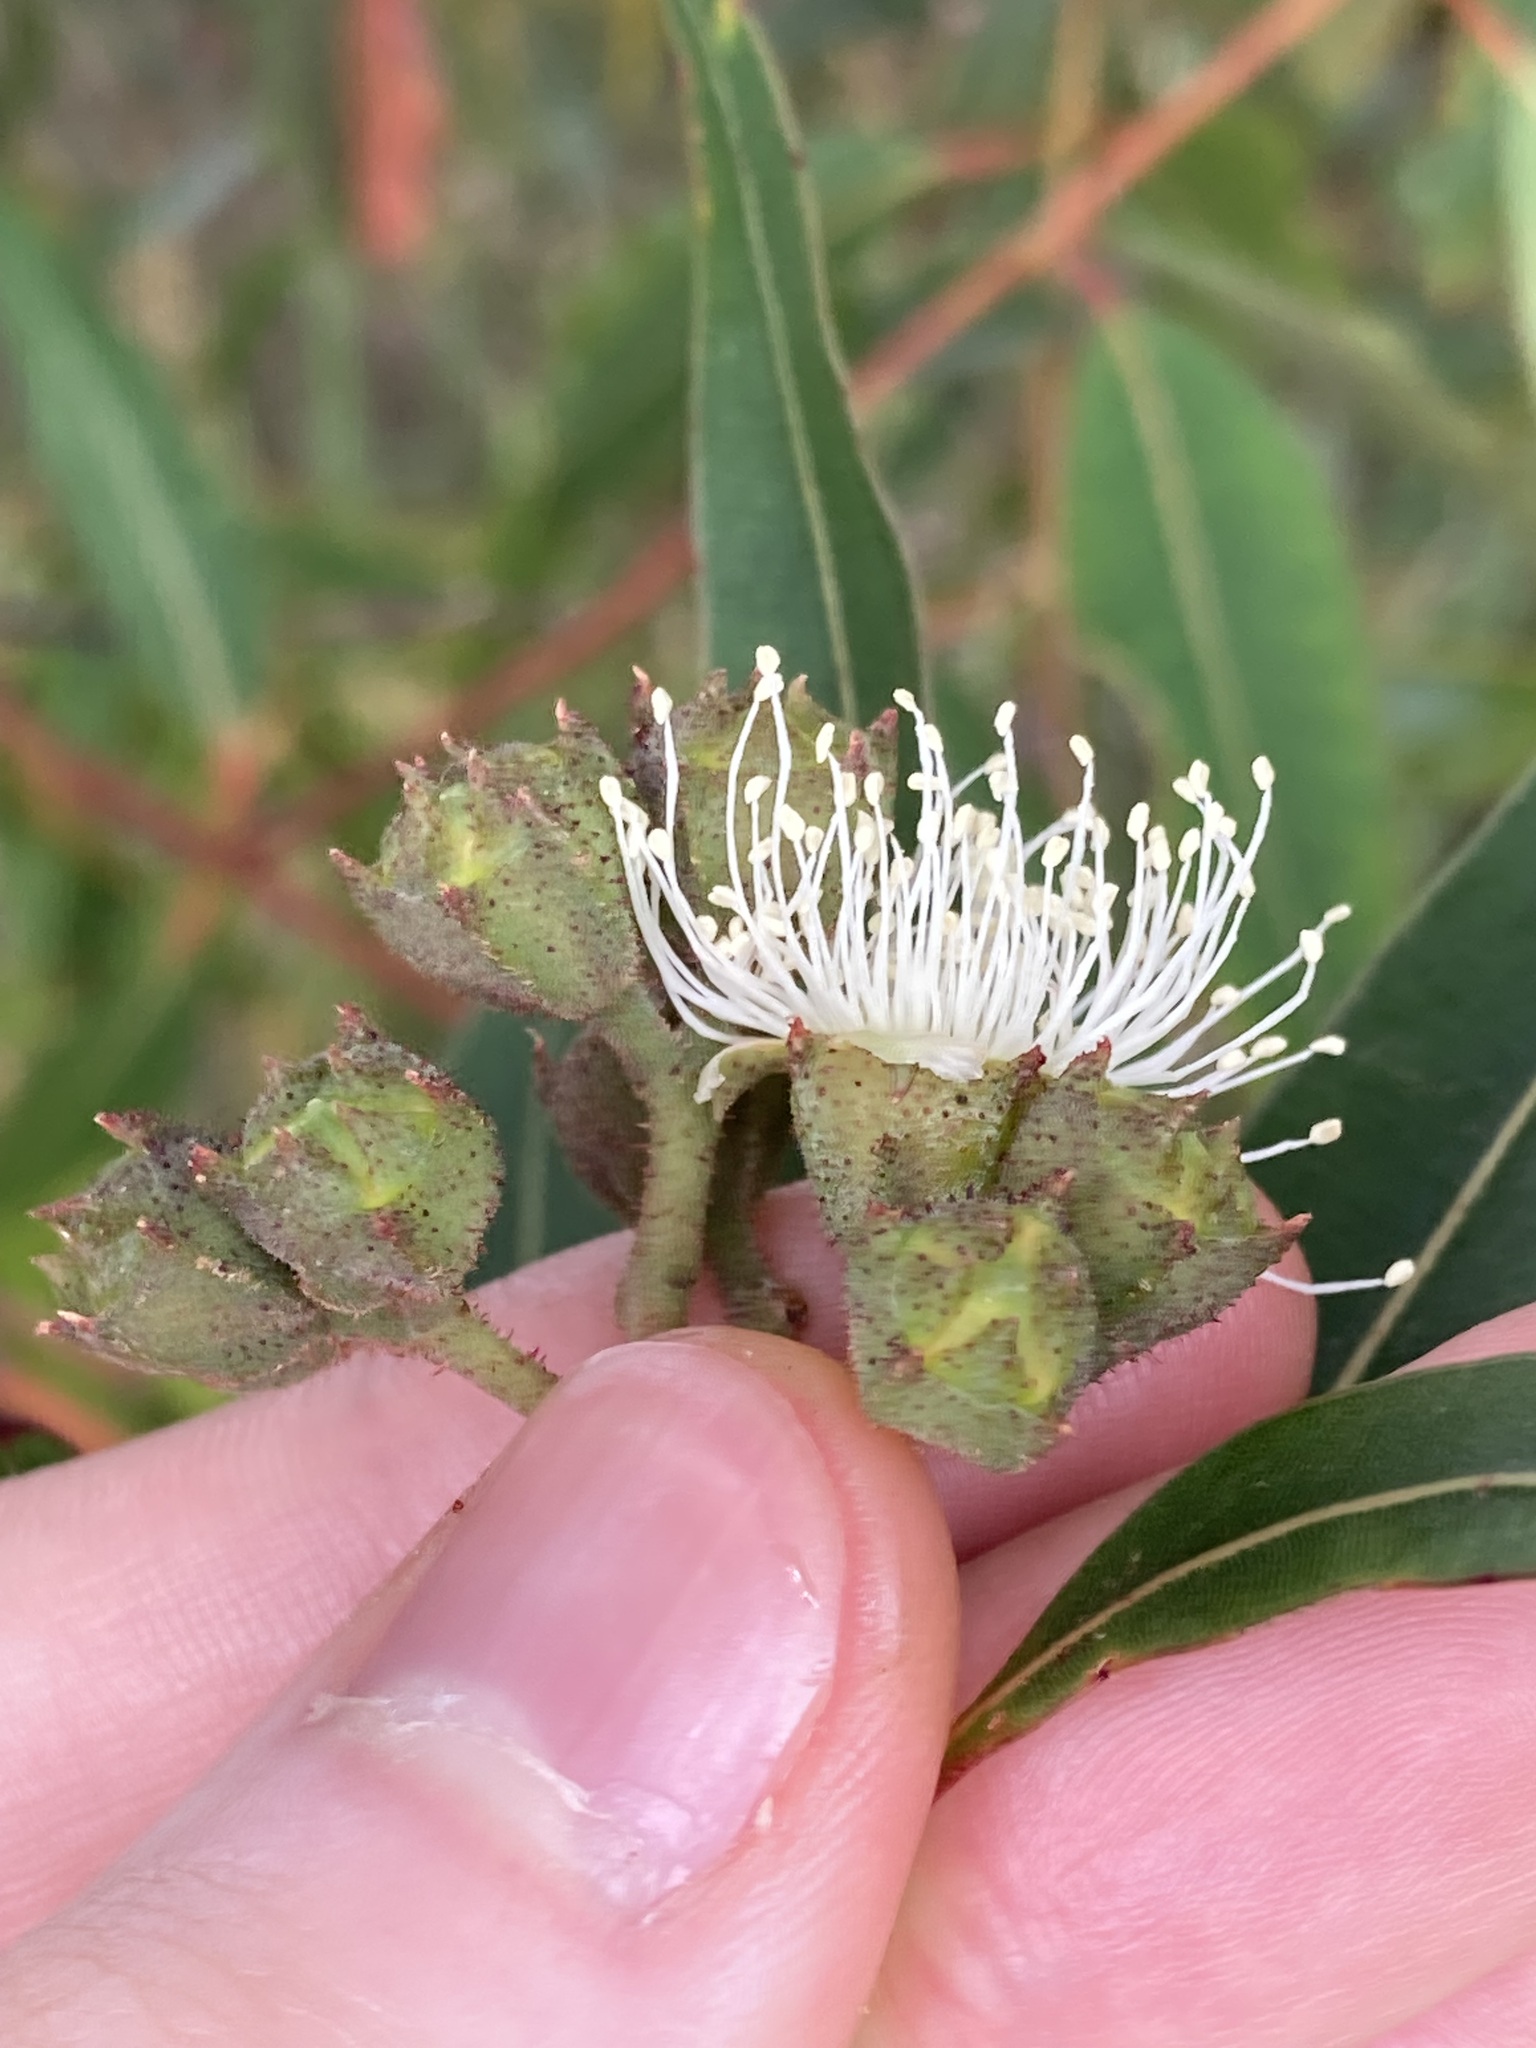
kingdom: Plantae
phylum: Tracheophyta
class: Magnoliopsida
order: Myrtales
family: Myrtaceae
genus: Angophora
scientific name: Angophora costata
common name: Gum myrtle
